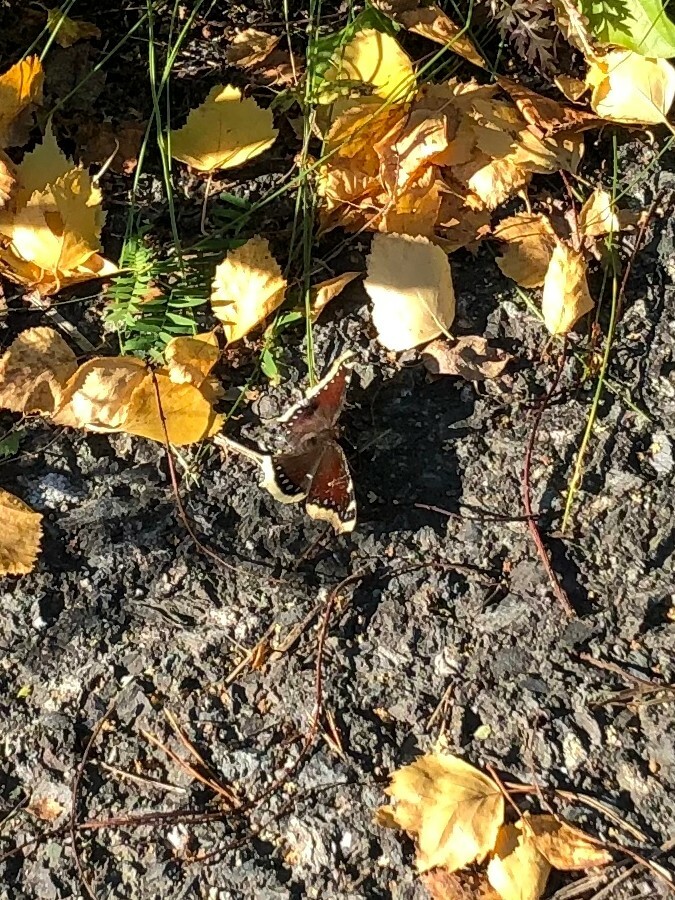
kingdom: Animalia
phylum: Arthropoda
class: Insecta
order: Lepidoptera
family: Nymphalidae
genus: Nymphalis
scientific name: Nymphalis antiopa
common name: Camberwell beauty
